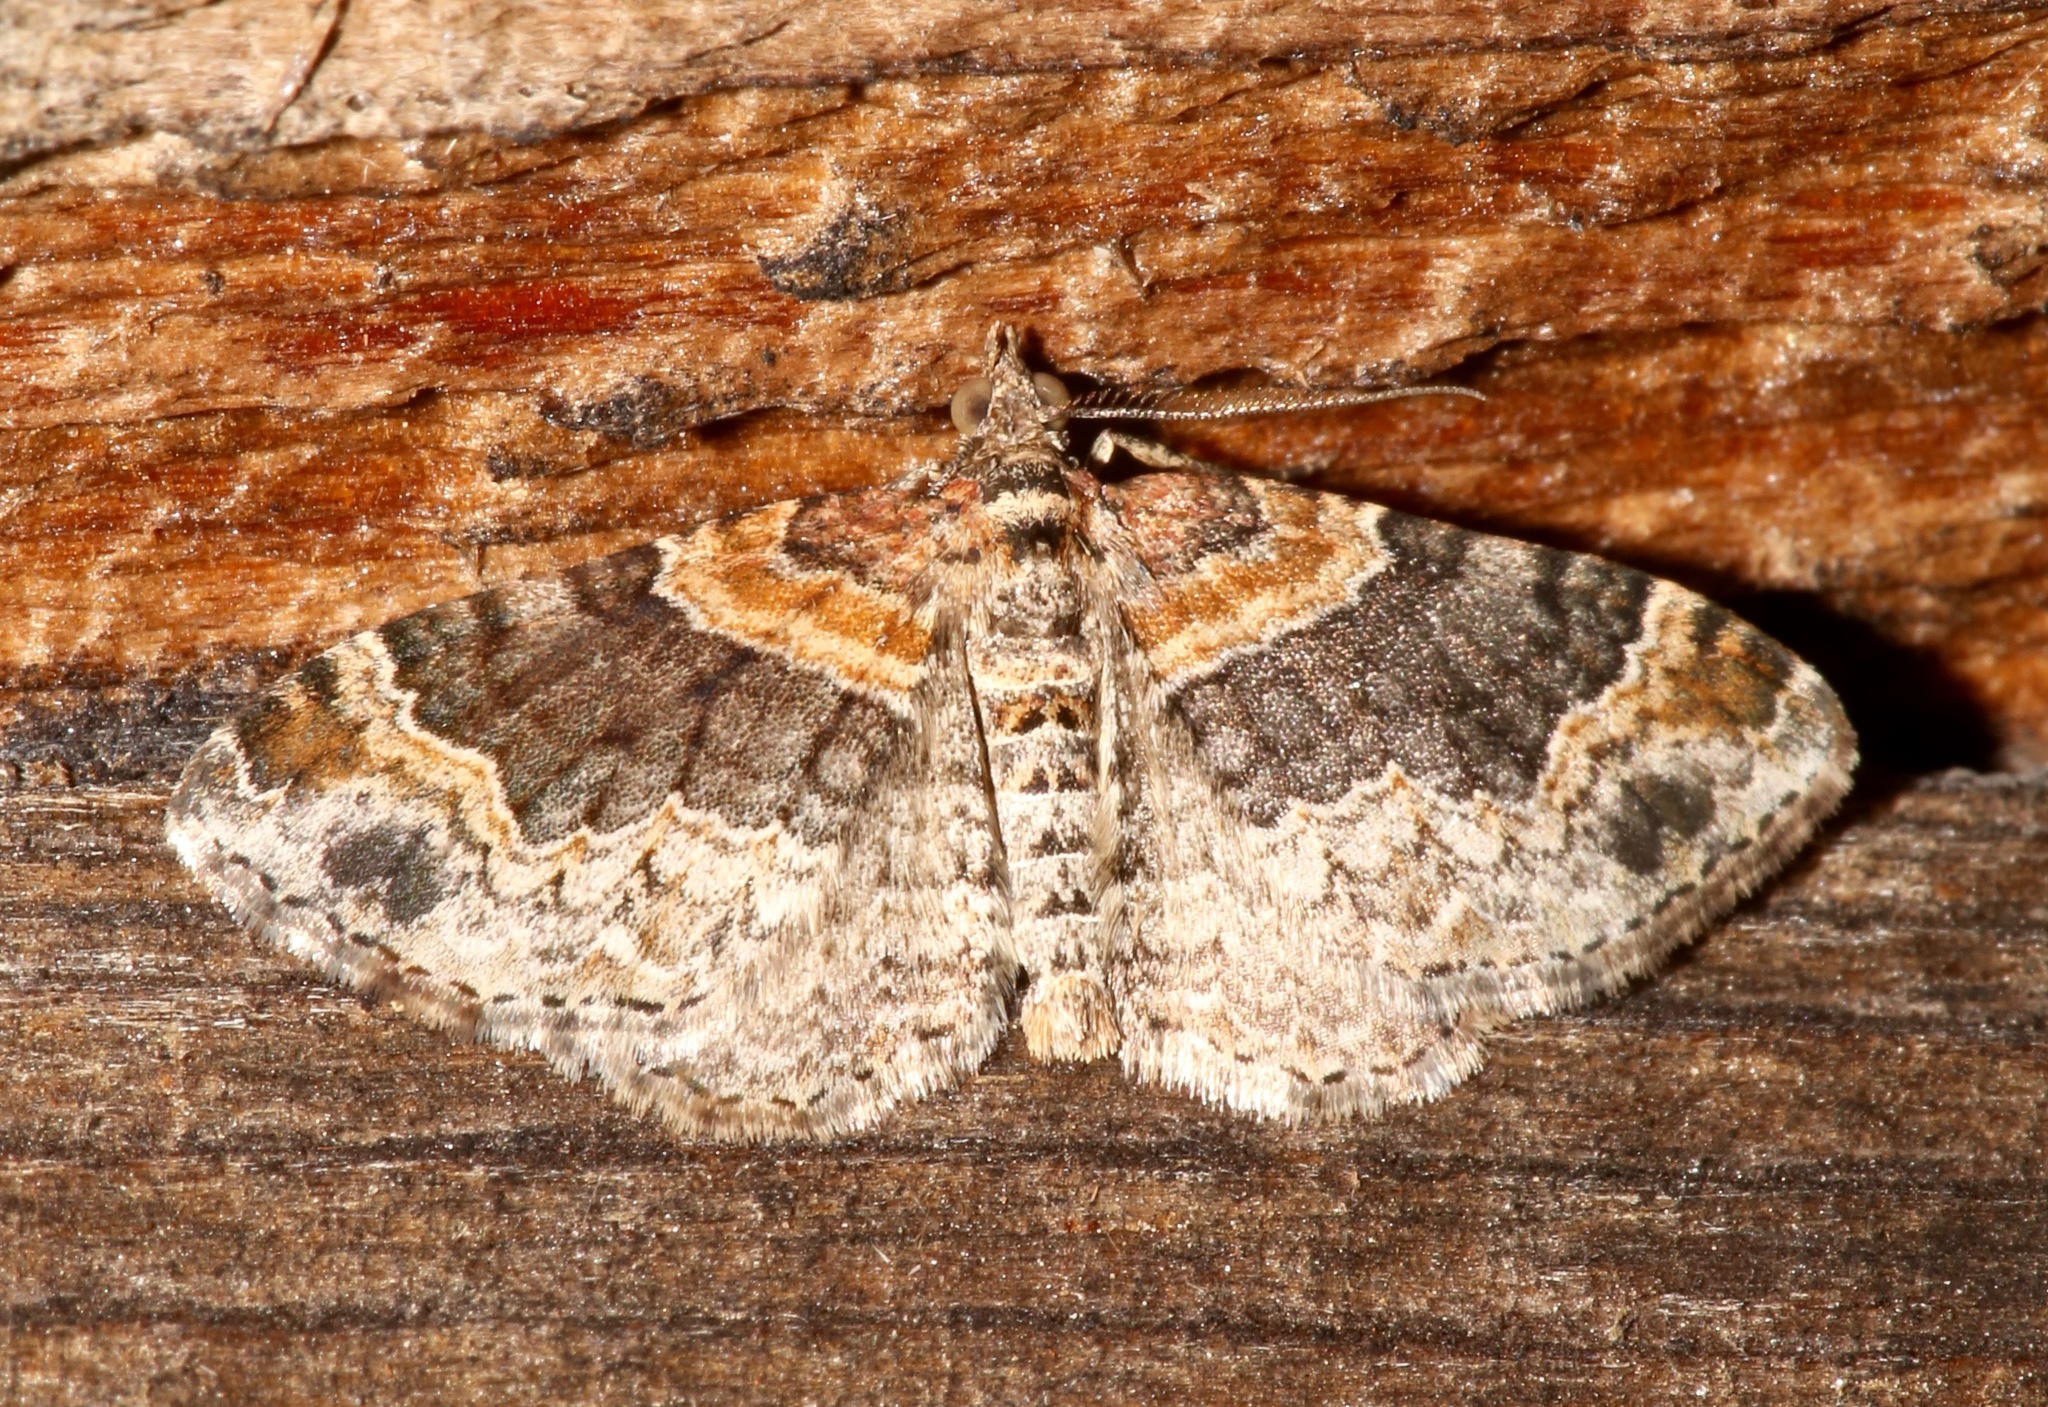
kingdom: Animalia
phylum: Arthropoda
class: Insecta
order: Lepidoptera
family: Geometridae
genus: Xanthorhoe
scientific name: Xanthorhoe ferrugata
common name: Dark-barred twin-spot carpet
